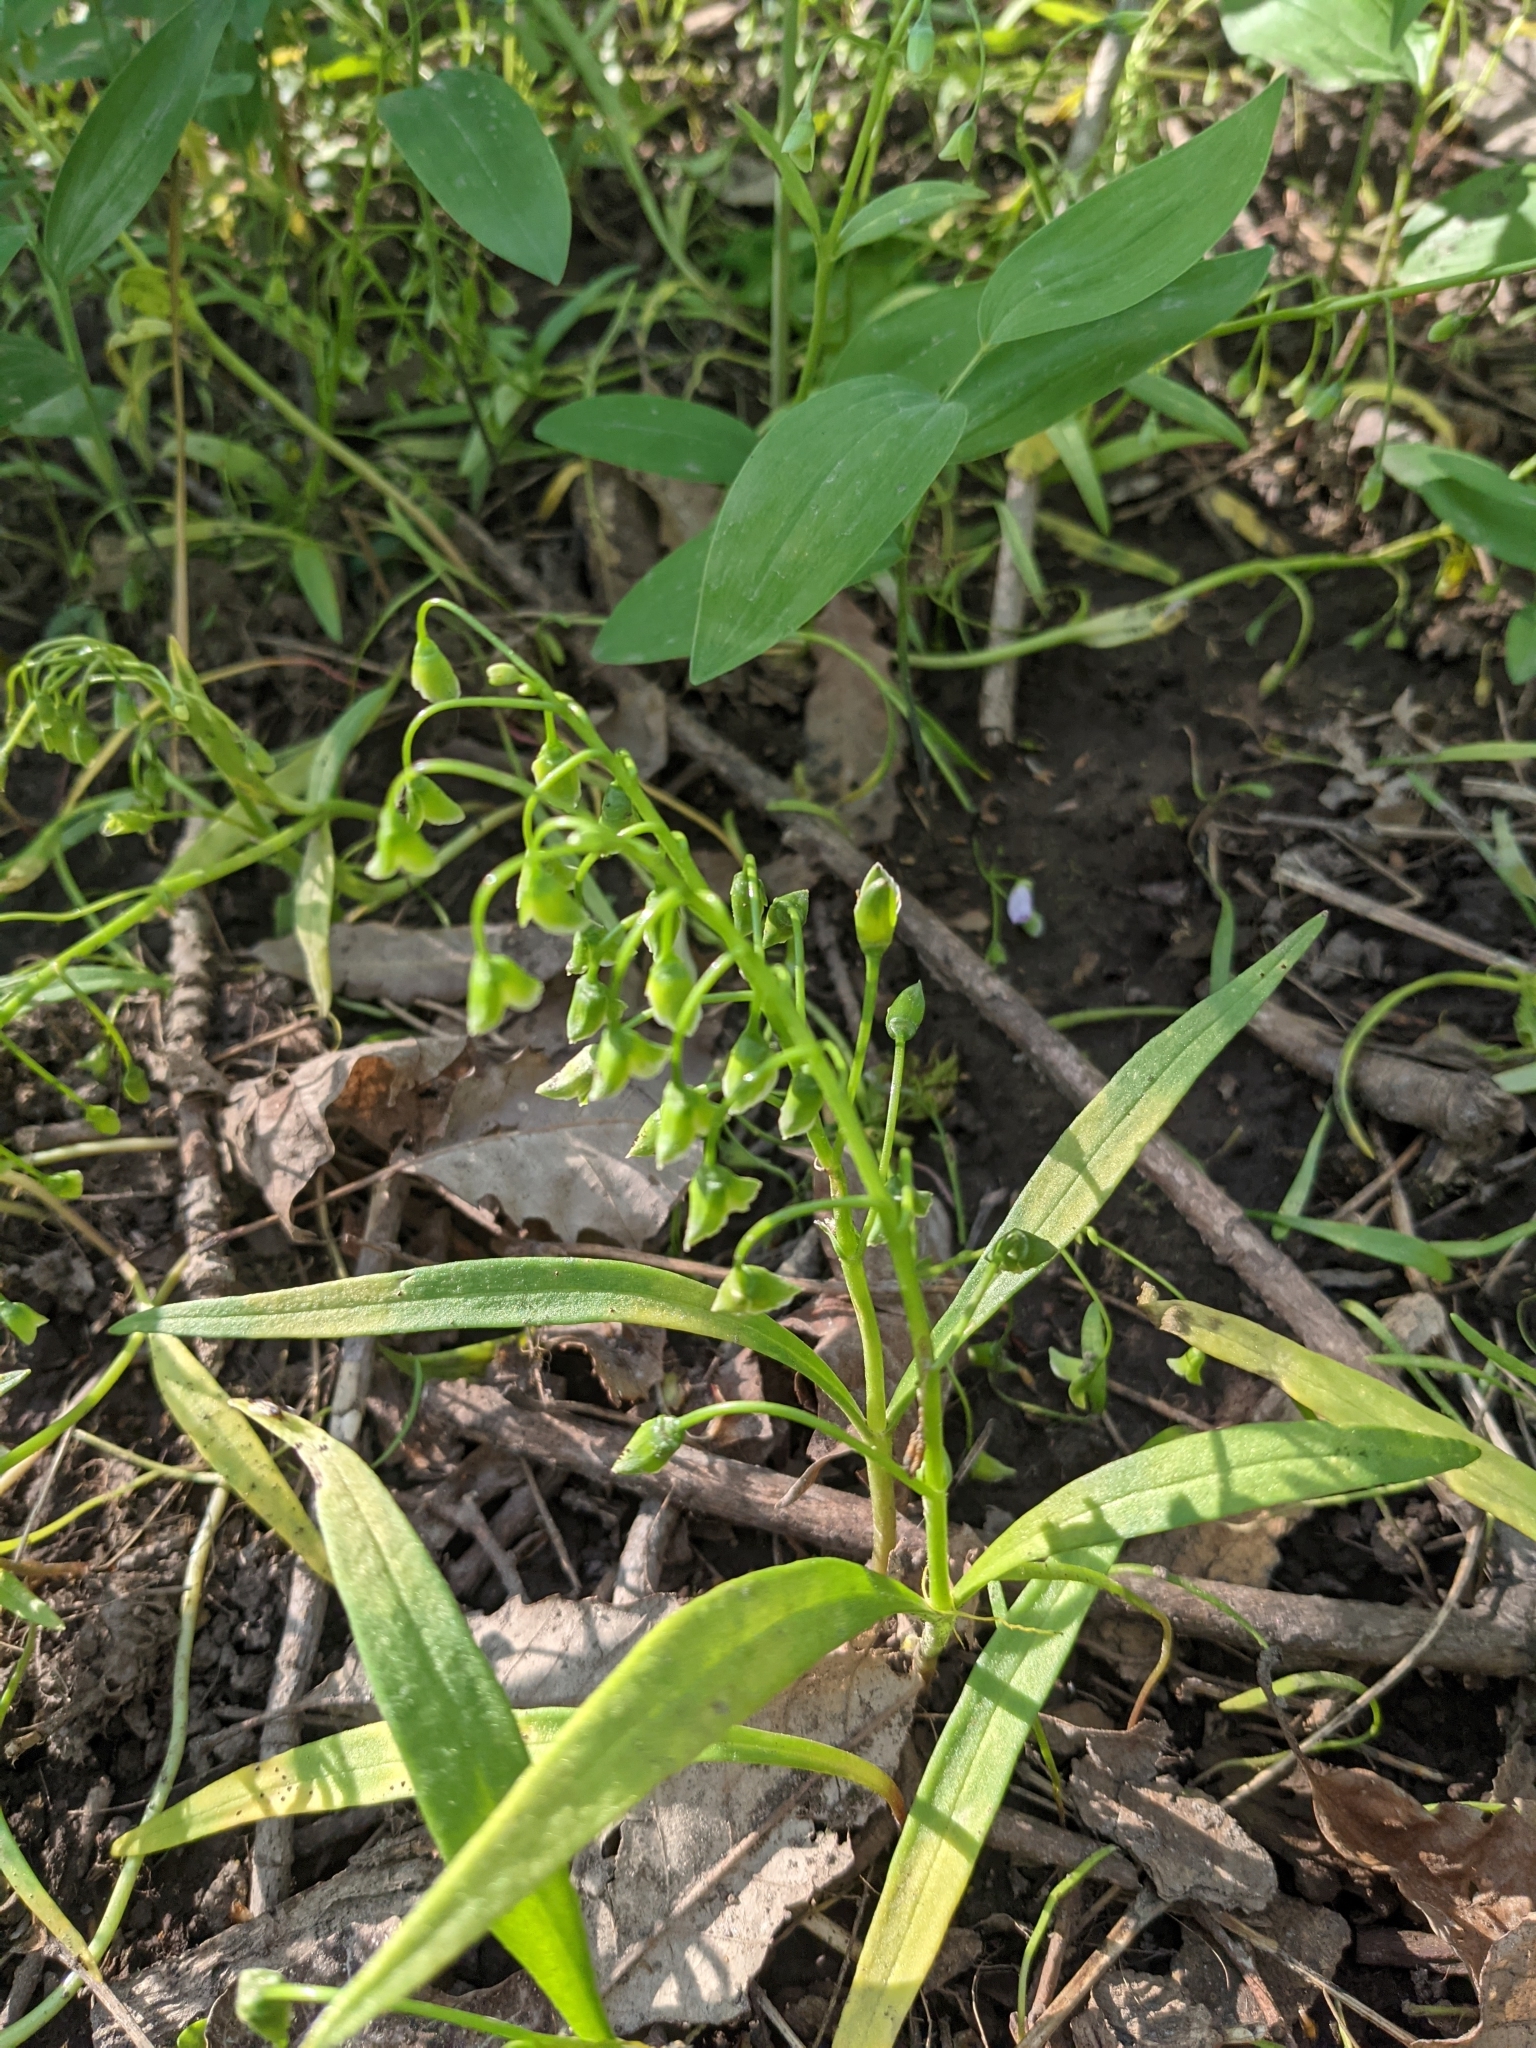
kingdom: Plantae
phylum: Tracheophyta
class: Magnoliopsida
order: Caryophyllales
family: Montiaceae
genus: Claytonia
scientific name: Claytonia virginica
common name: Virginia springbeauty
